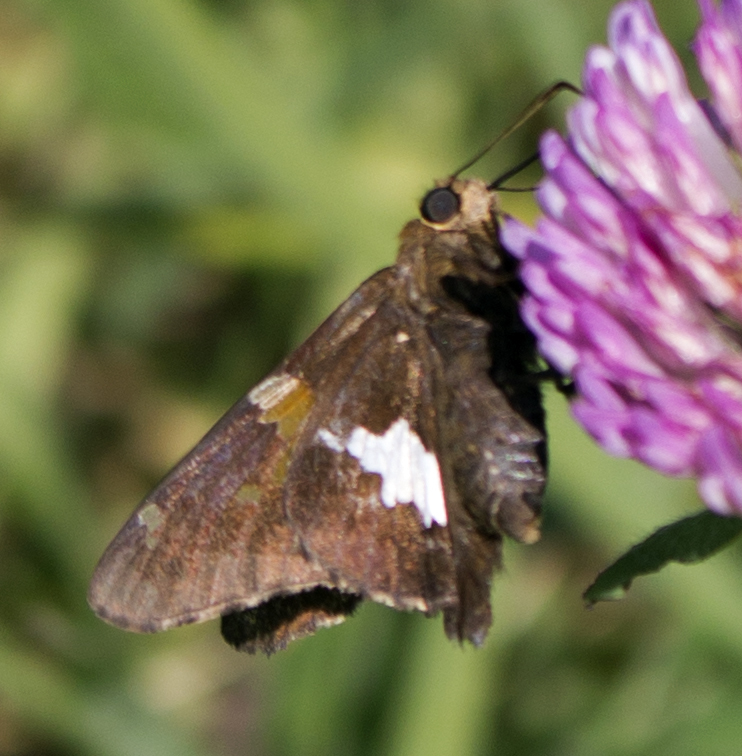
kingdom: Animalia
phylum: Arthropoda
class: Insecta
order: Lepidoptera
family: Hesperiidae
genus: Epargyreus
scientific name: Epargyreus clarus
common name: Silver-spotted skipper
